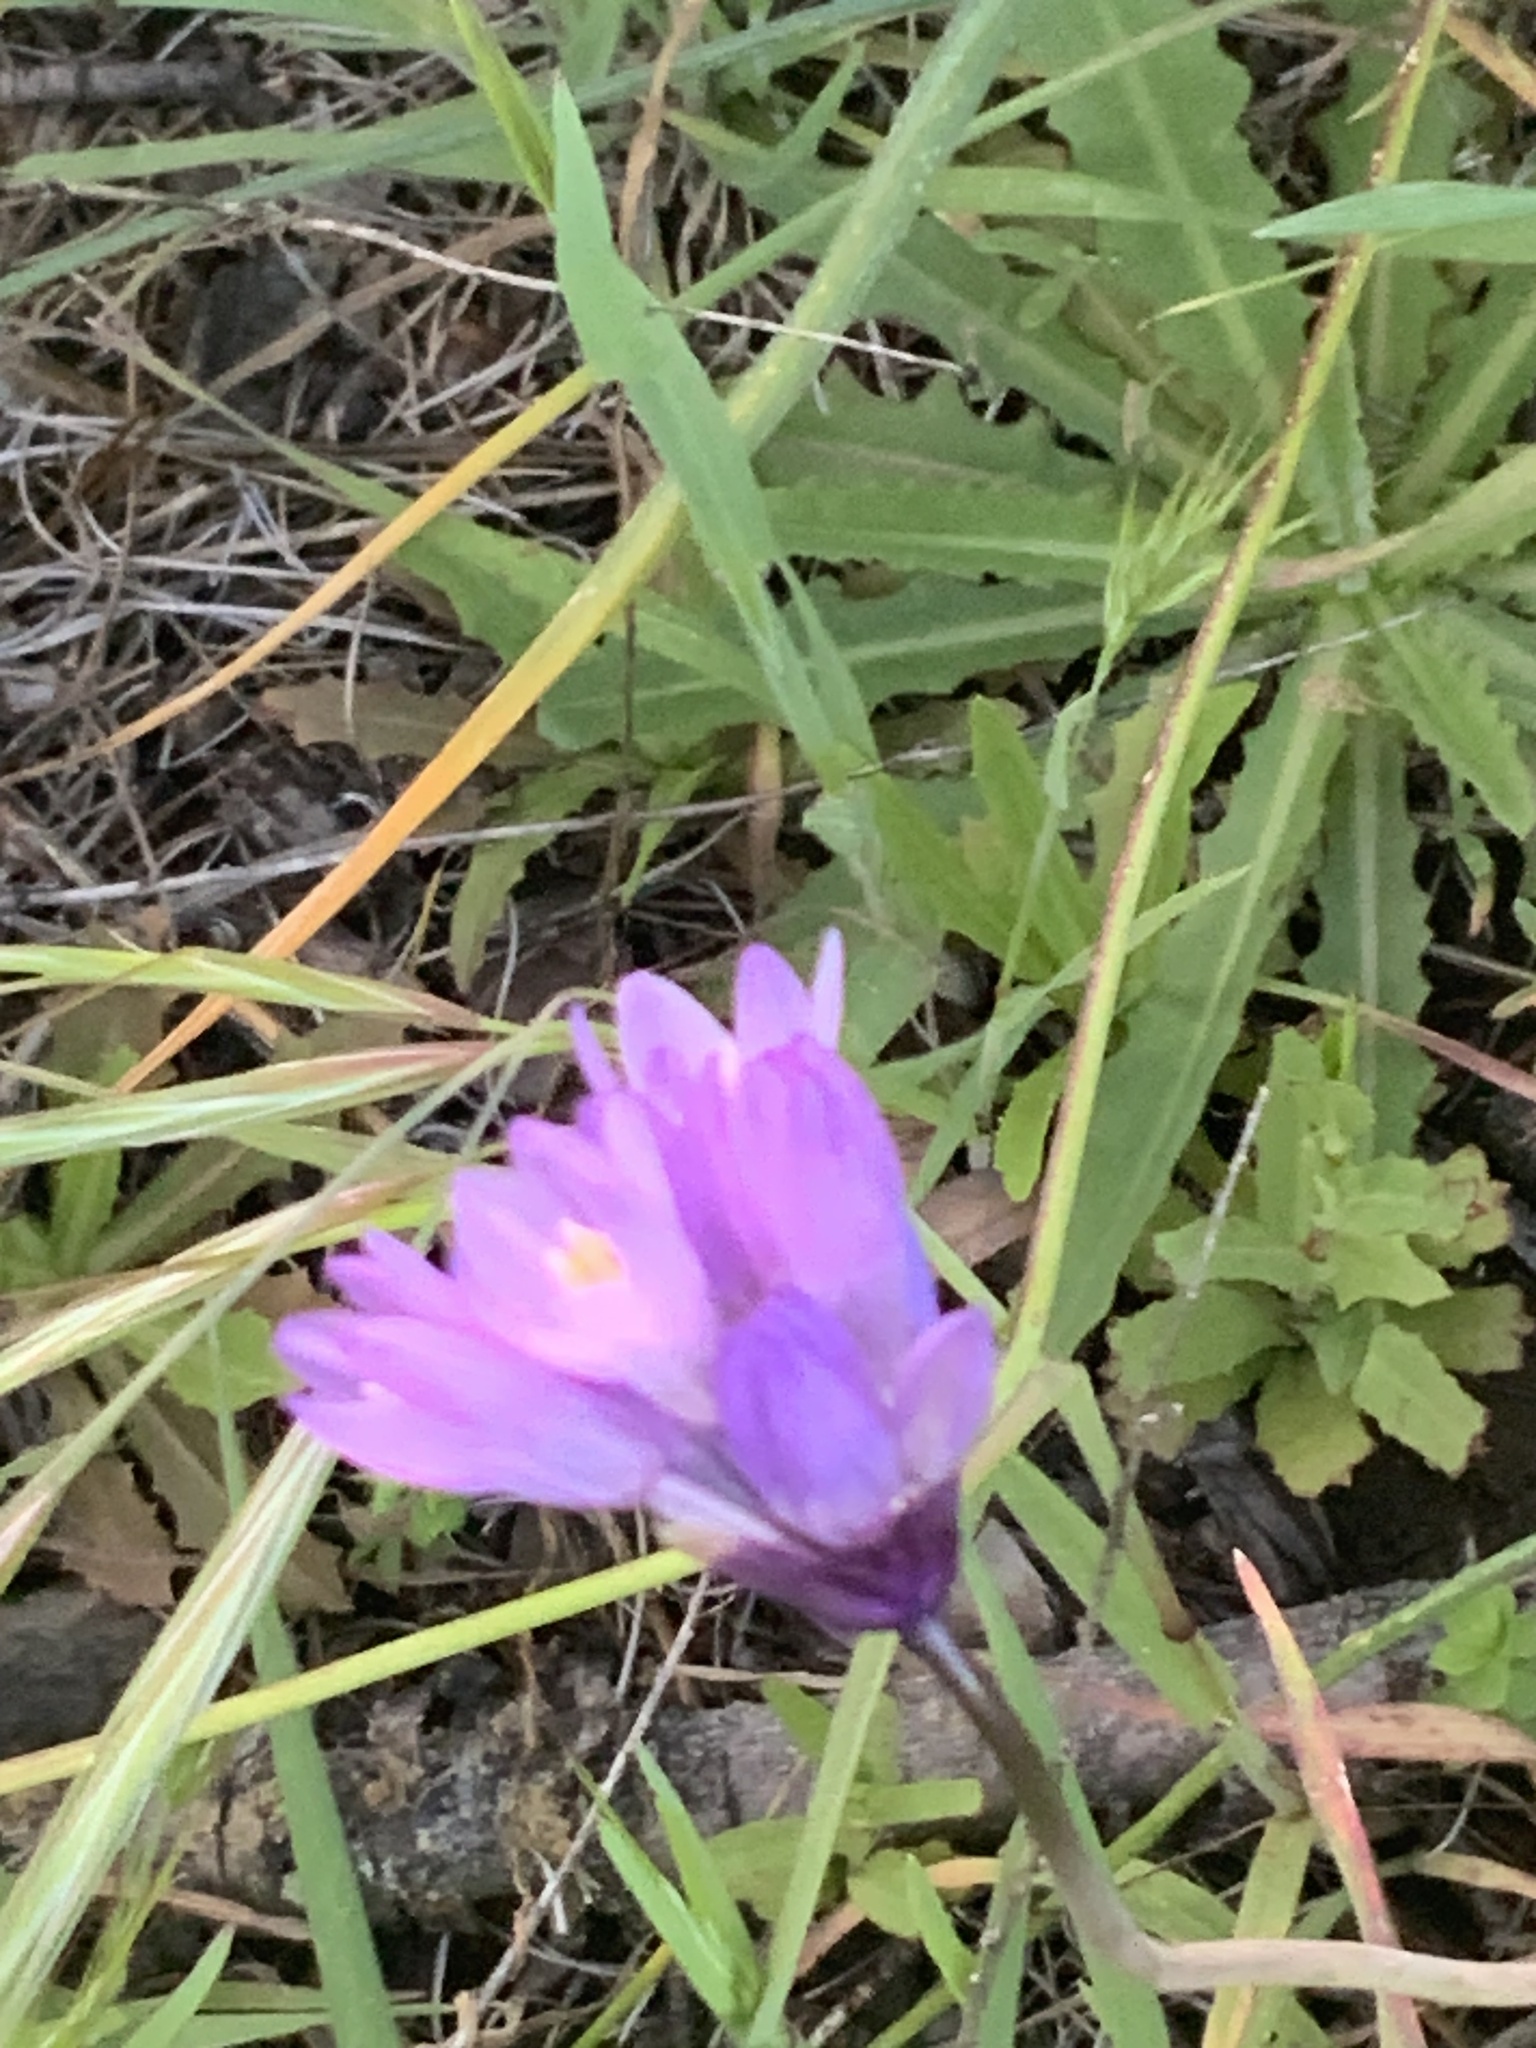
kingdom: Plantae
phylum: Tracheophyta
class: Liliopsida
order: Asparagales
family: Asparagaceae
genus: Dipterostemon
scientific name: Dipterostemon capitatus
